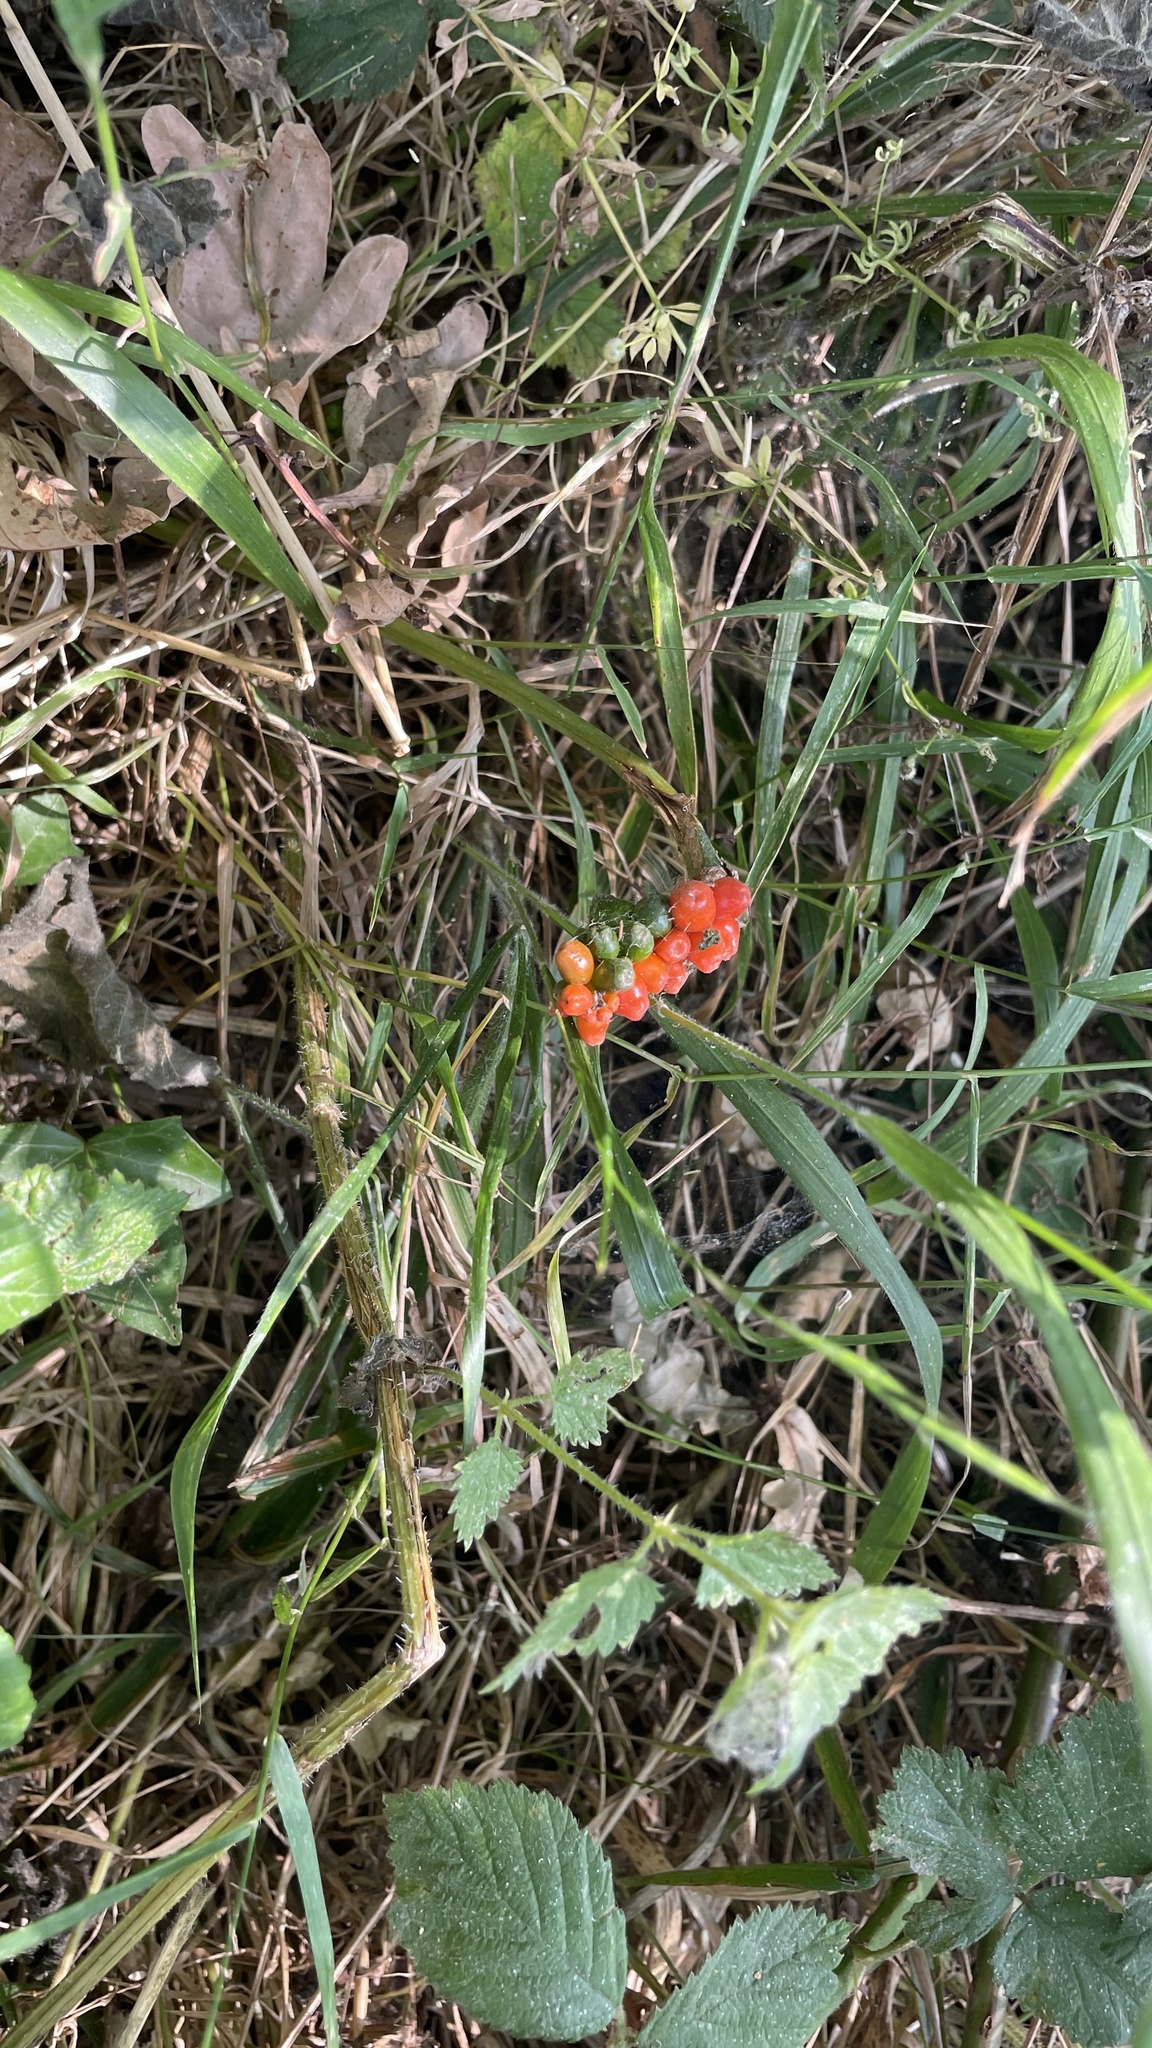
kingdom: Plantae
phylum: Tracheophyta
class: Liliopsida
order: Alismatales
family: Araceae
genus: Arum
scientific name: Arum maculatum
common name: Lords-and-ladies
